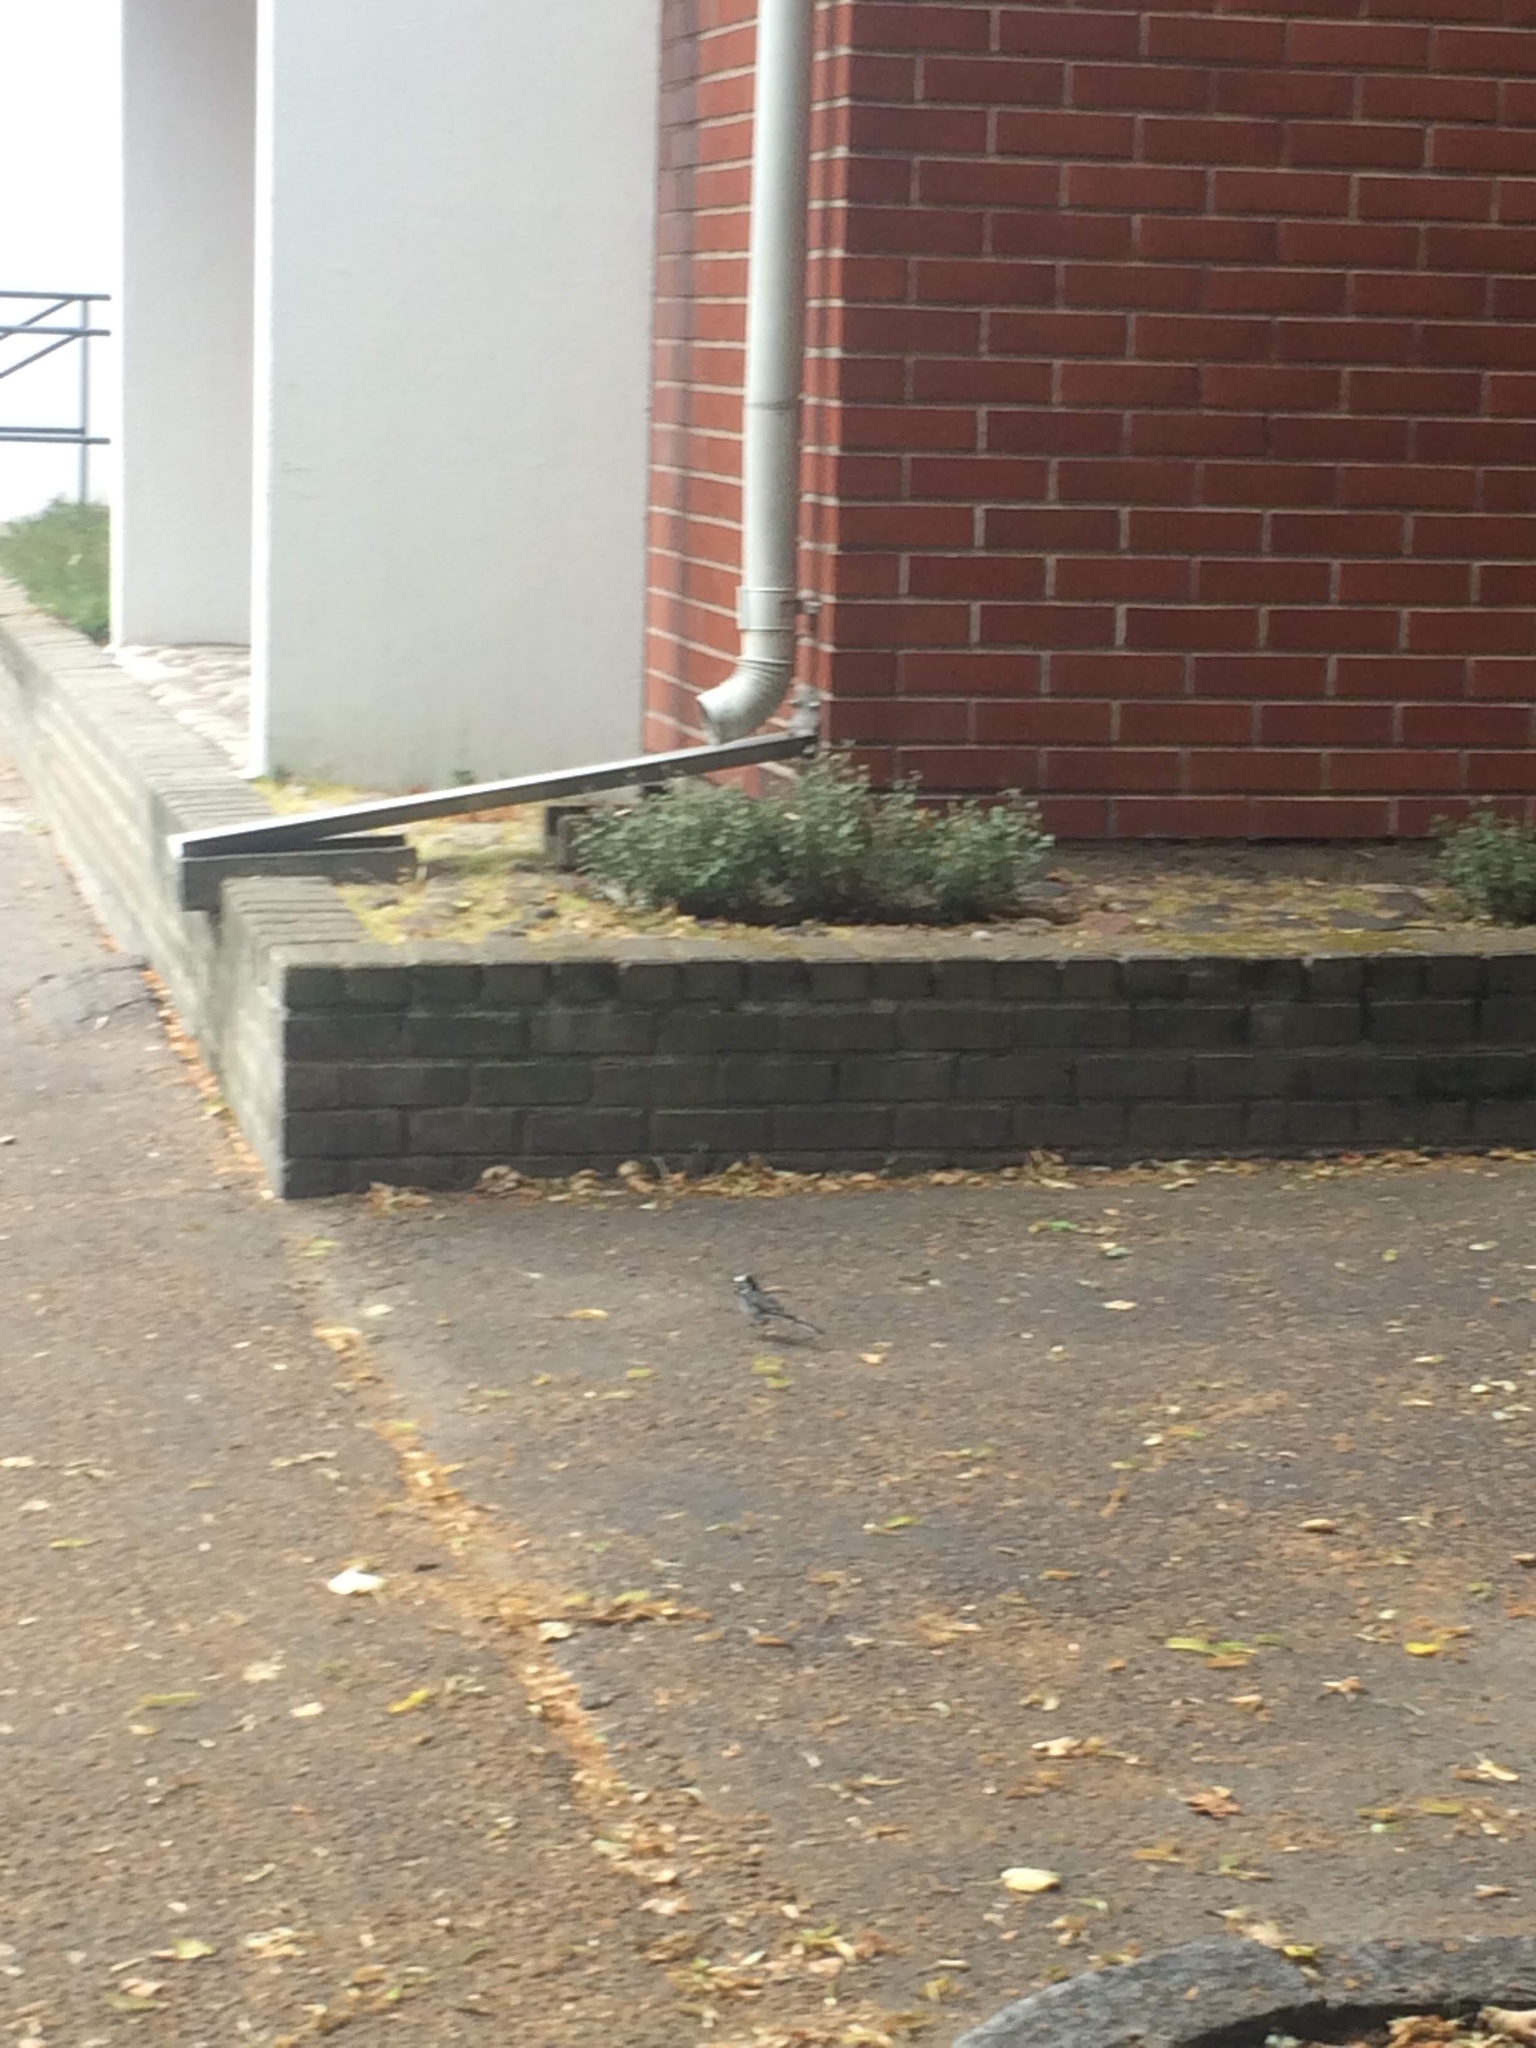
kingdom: Animalia
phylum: Chordata
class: Aves
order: Passeriformes
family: Motacillidae
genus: Motacilla
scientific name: Motacilla alba
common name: White wagtail
